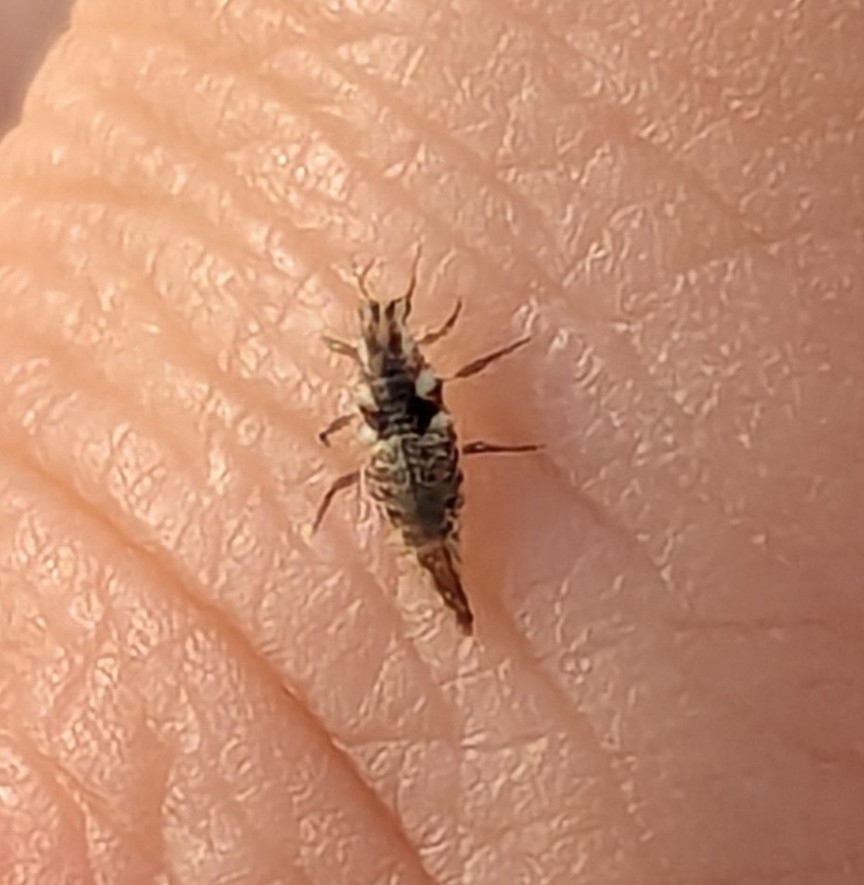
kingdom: Animalia
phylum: Arthropoda
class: Insecta
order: Neuroptera
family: Chrysopidae
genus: Chrysoperla
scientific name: Chrysoperla rufilabris
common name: Red-lipped green lacewing
